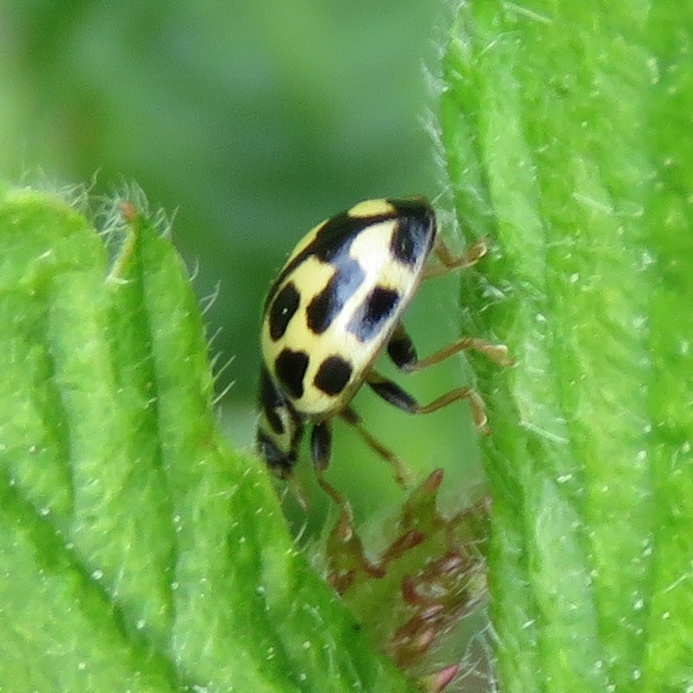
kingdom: Animalia
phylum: Arthropoda
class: Insecta
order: Coleoptera
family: Coccinellidae
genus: Propylaea
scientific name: Propylaea quatuordecimpunctata
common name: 14-spotted ladybird beetle
